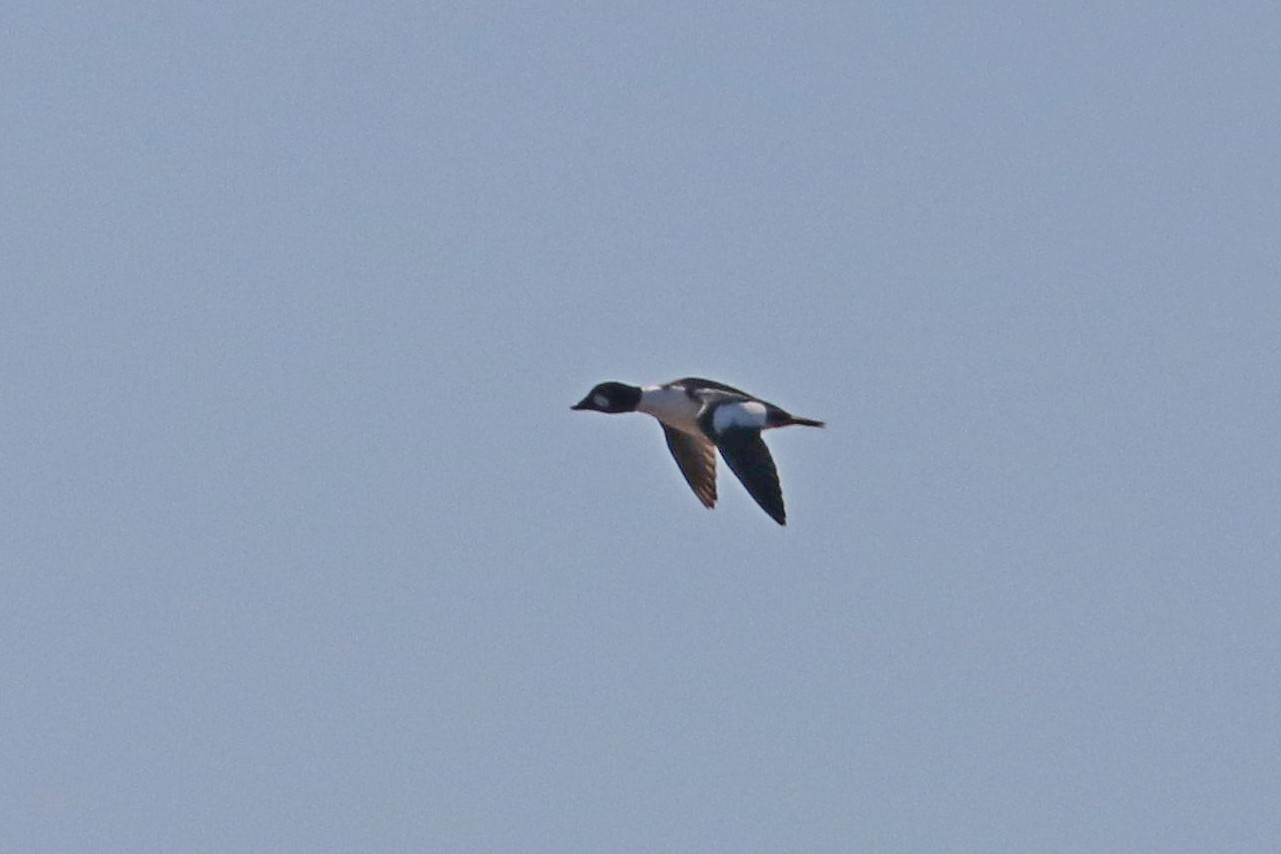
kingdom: Animalia
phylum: Chordata
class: Aves
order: Anseriformes
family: Anatidae
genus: Bucephala
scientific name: Bucephala clangula
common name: Common goldeneye
